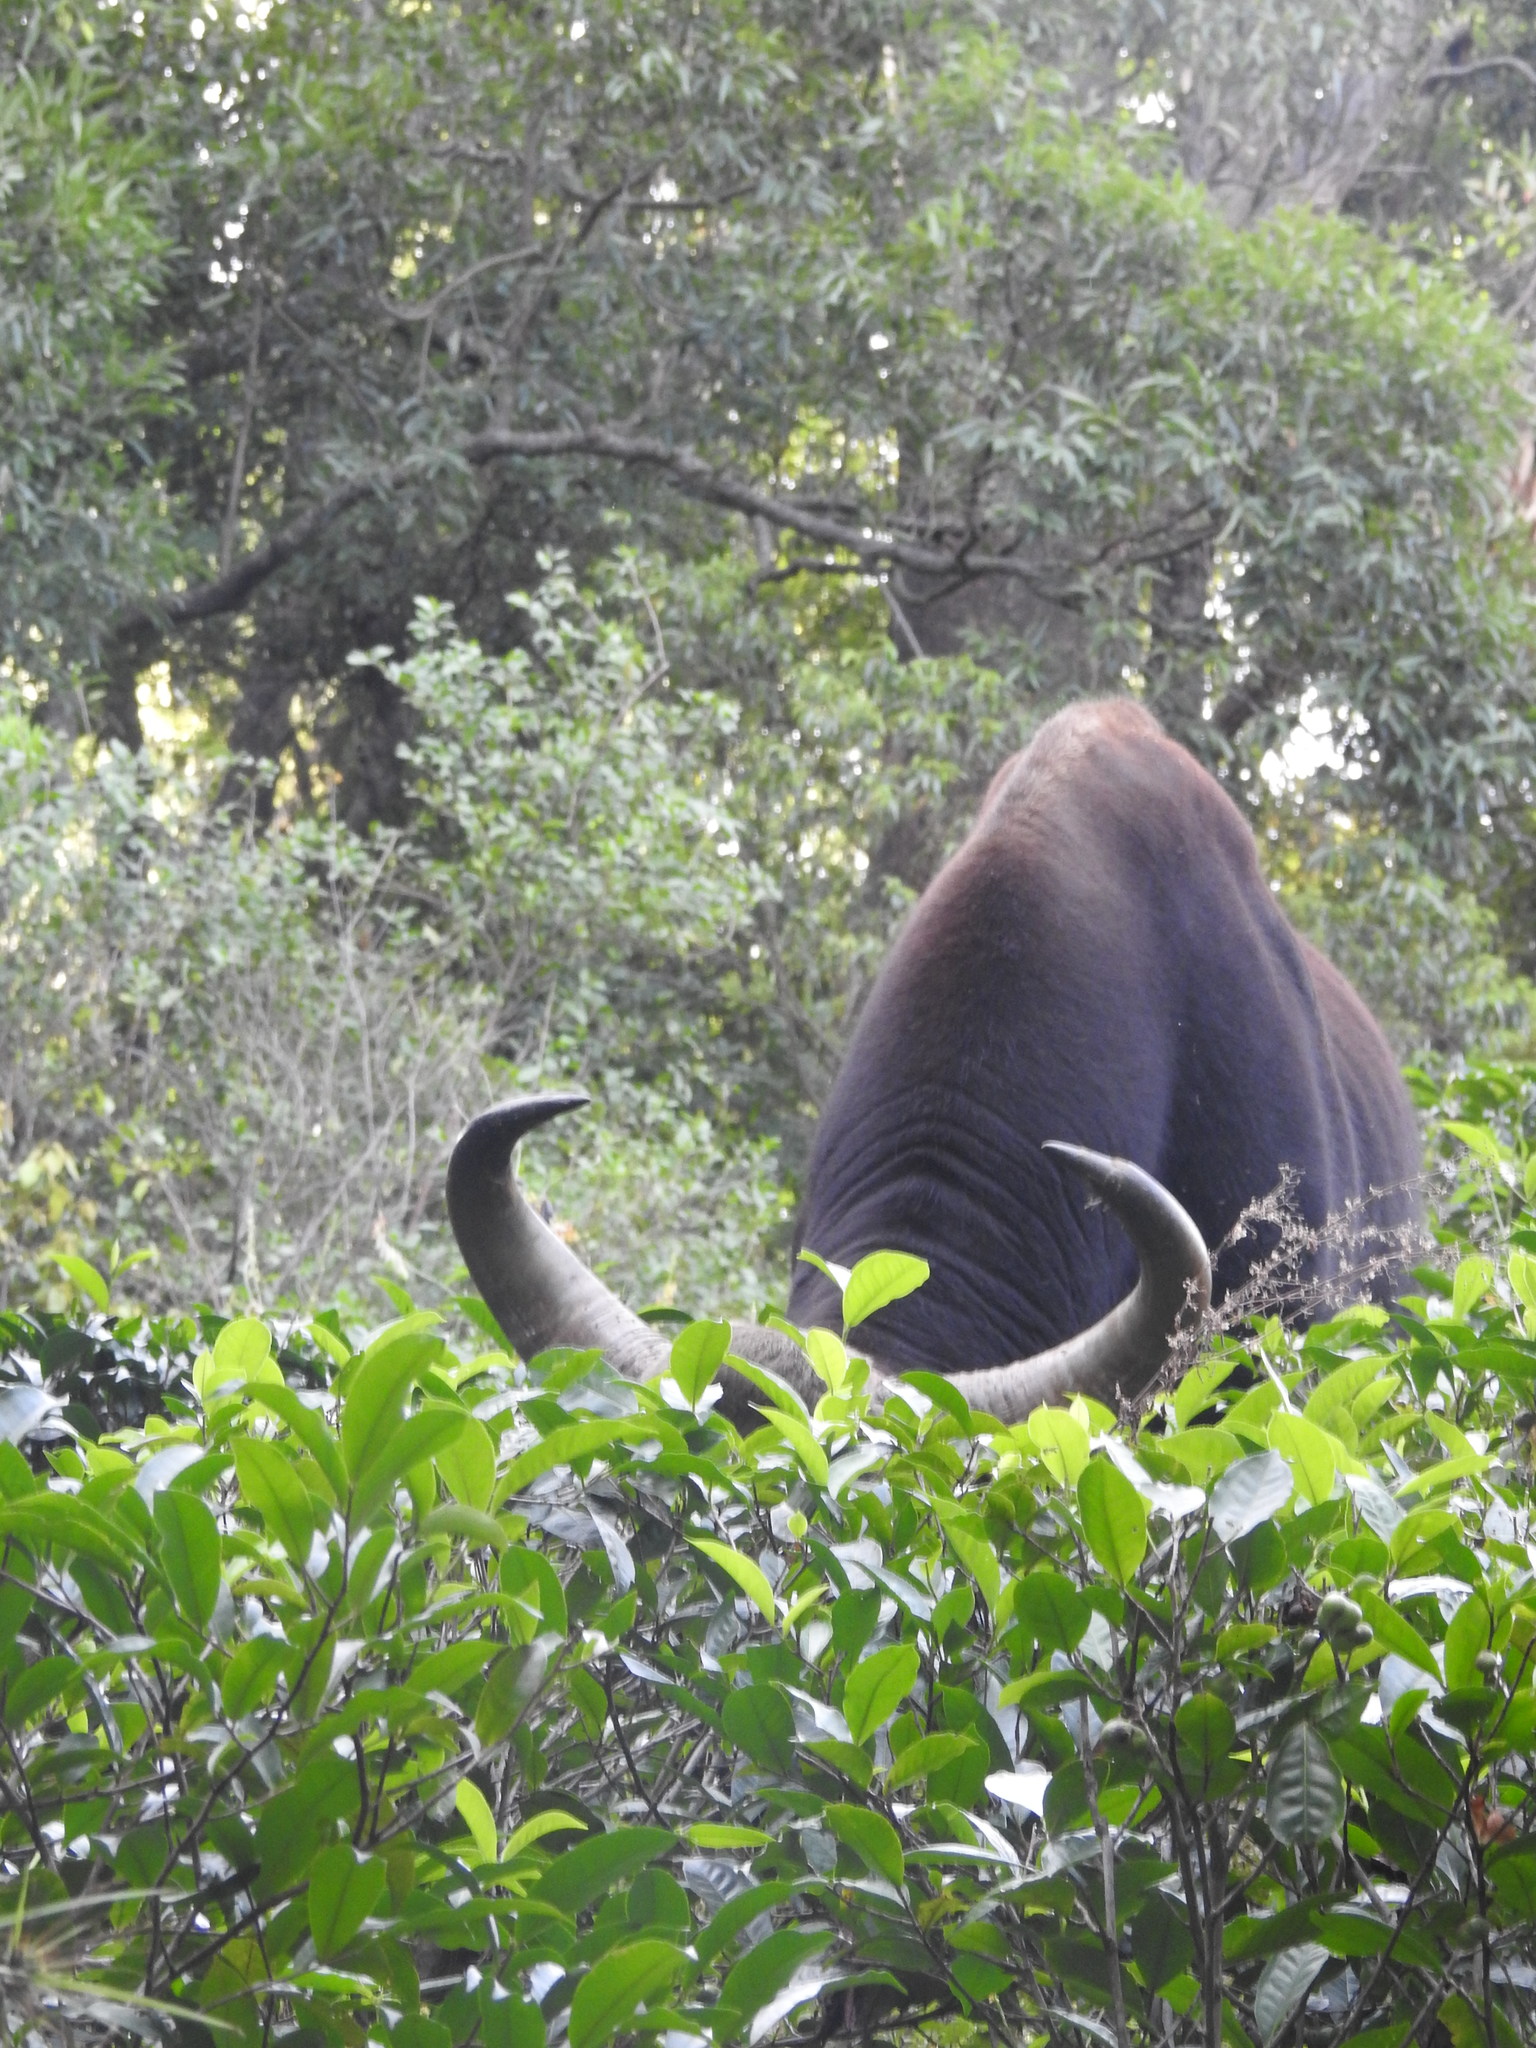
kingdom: Animalia
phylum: Chordata
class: Mammalia
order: Artiodactyla
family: Bovidae
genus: Bos
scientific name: Bos frontalis
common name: Gaur
